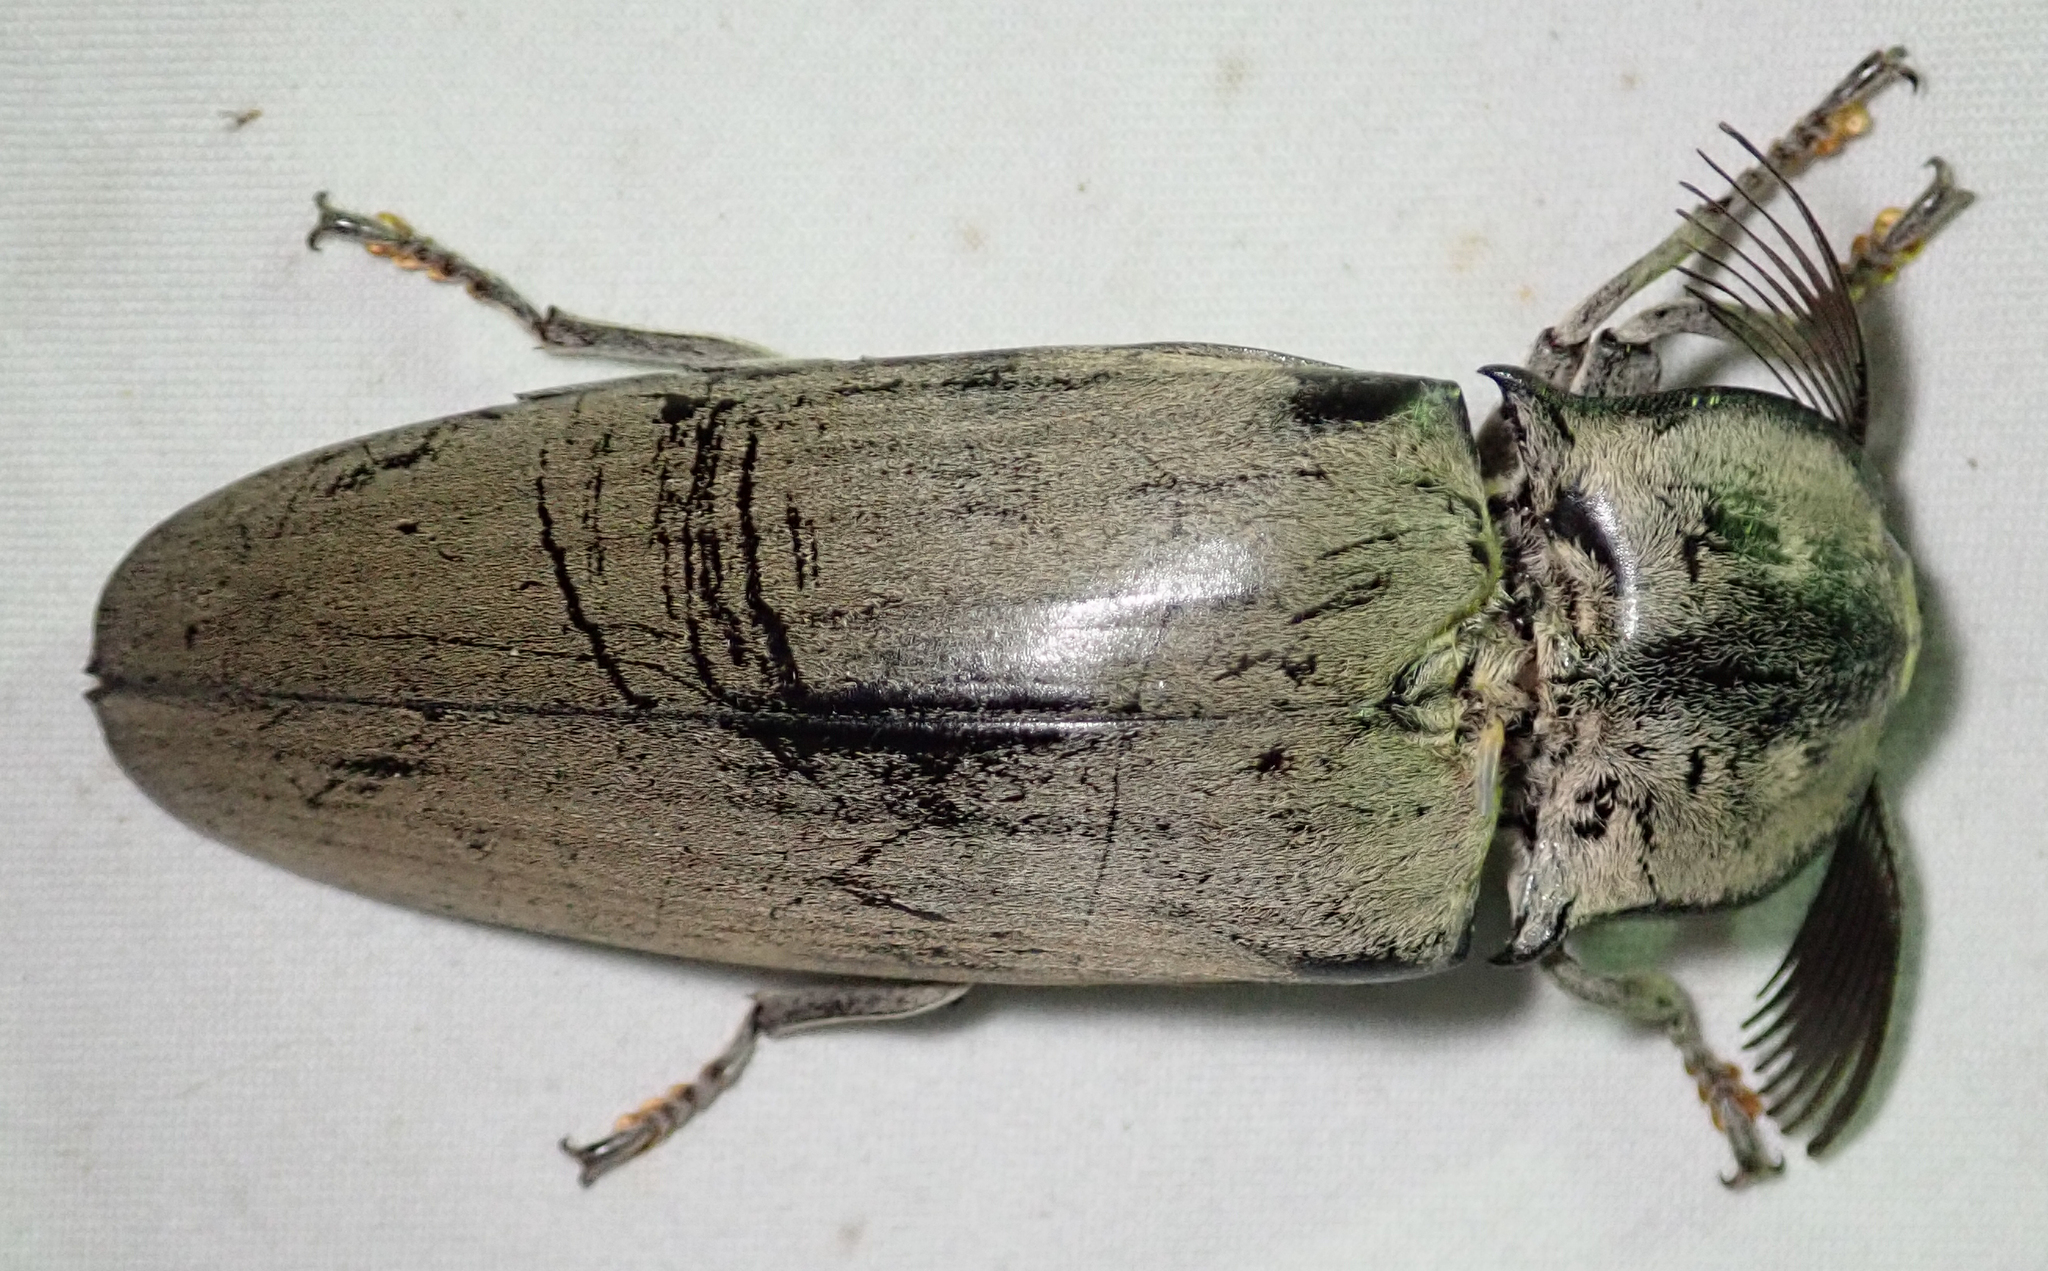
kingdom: Animalia
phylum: Arthropoda
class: Insecta
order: Coleoptera
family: Elateridae
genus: Tetralobus
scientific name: Tetralobus flabellicornis
